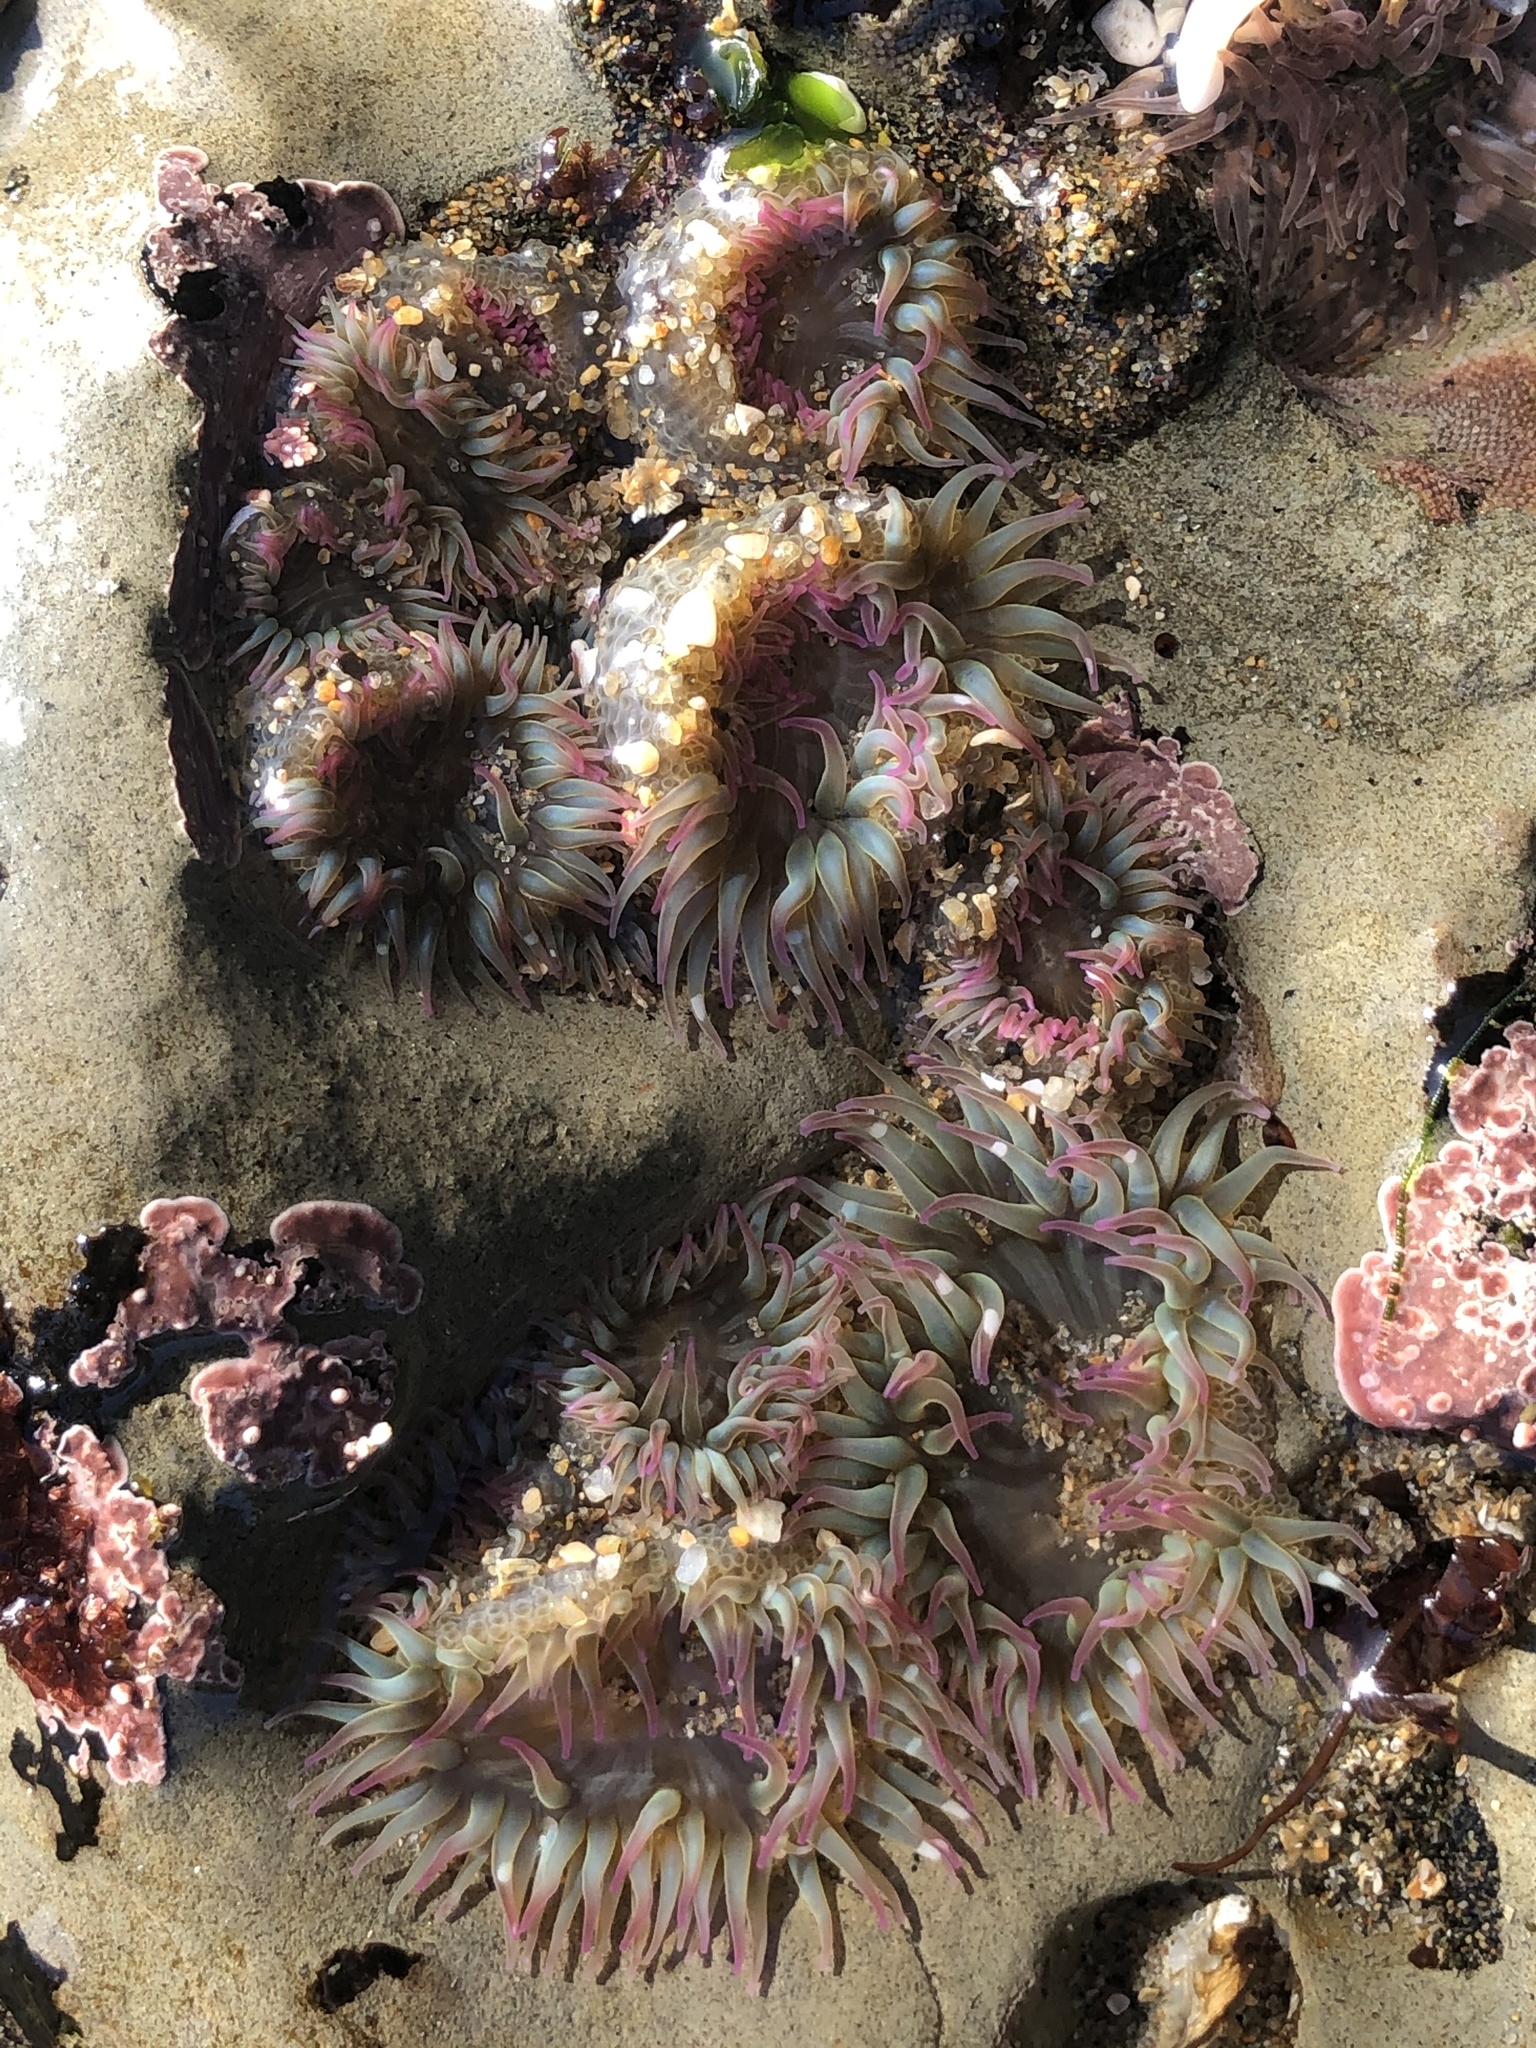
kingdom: Animalia
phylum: Cnidaria
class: Anthozoa
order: Actiniaria
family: Actiniidae
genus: Anthopleura
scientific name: Anthopleura elegantissima
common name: Clonal anemone
